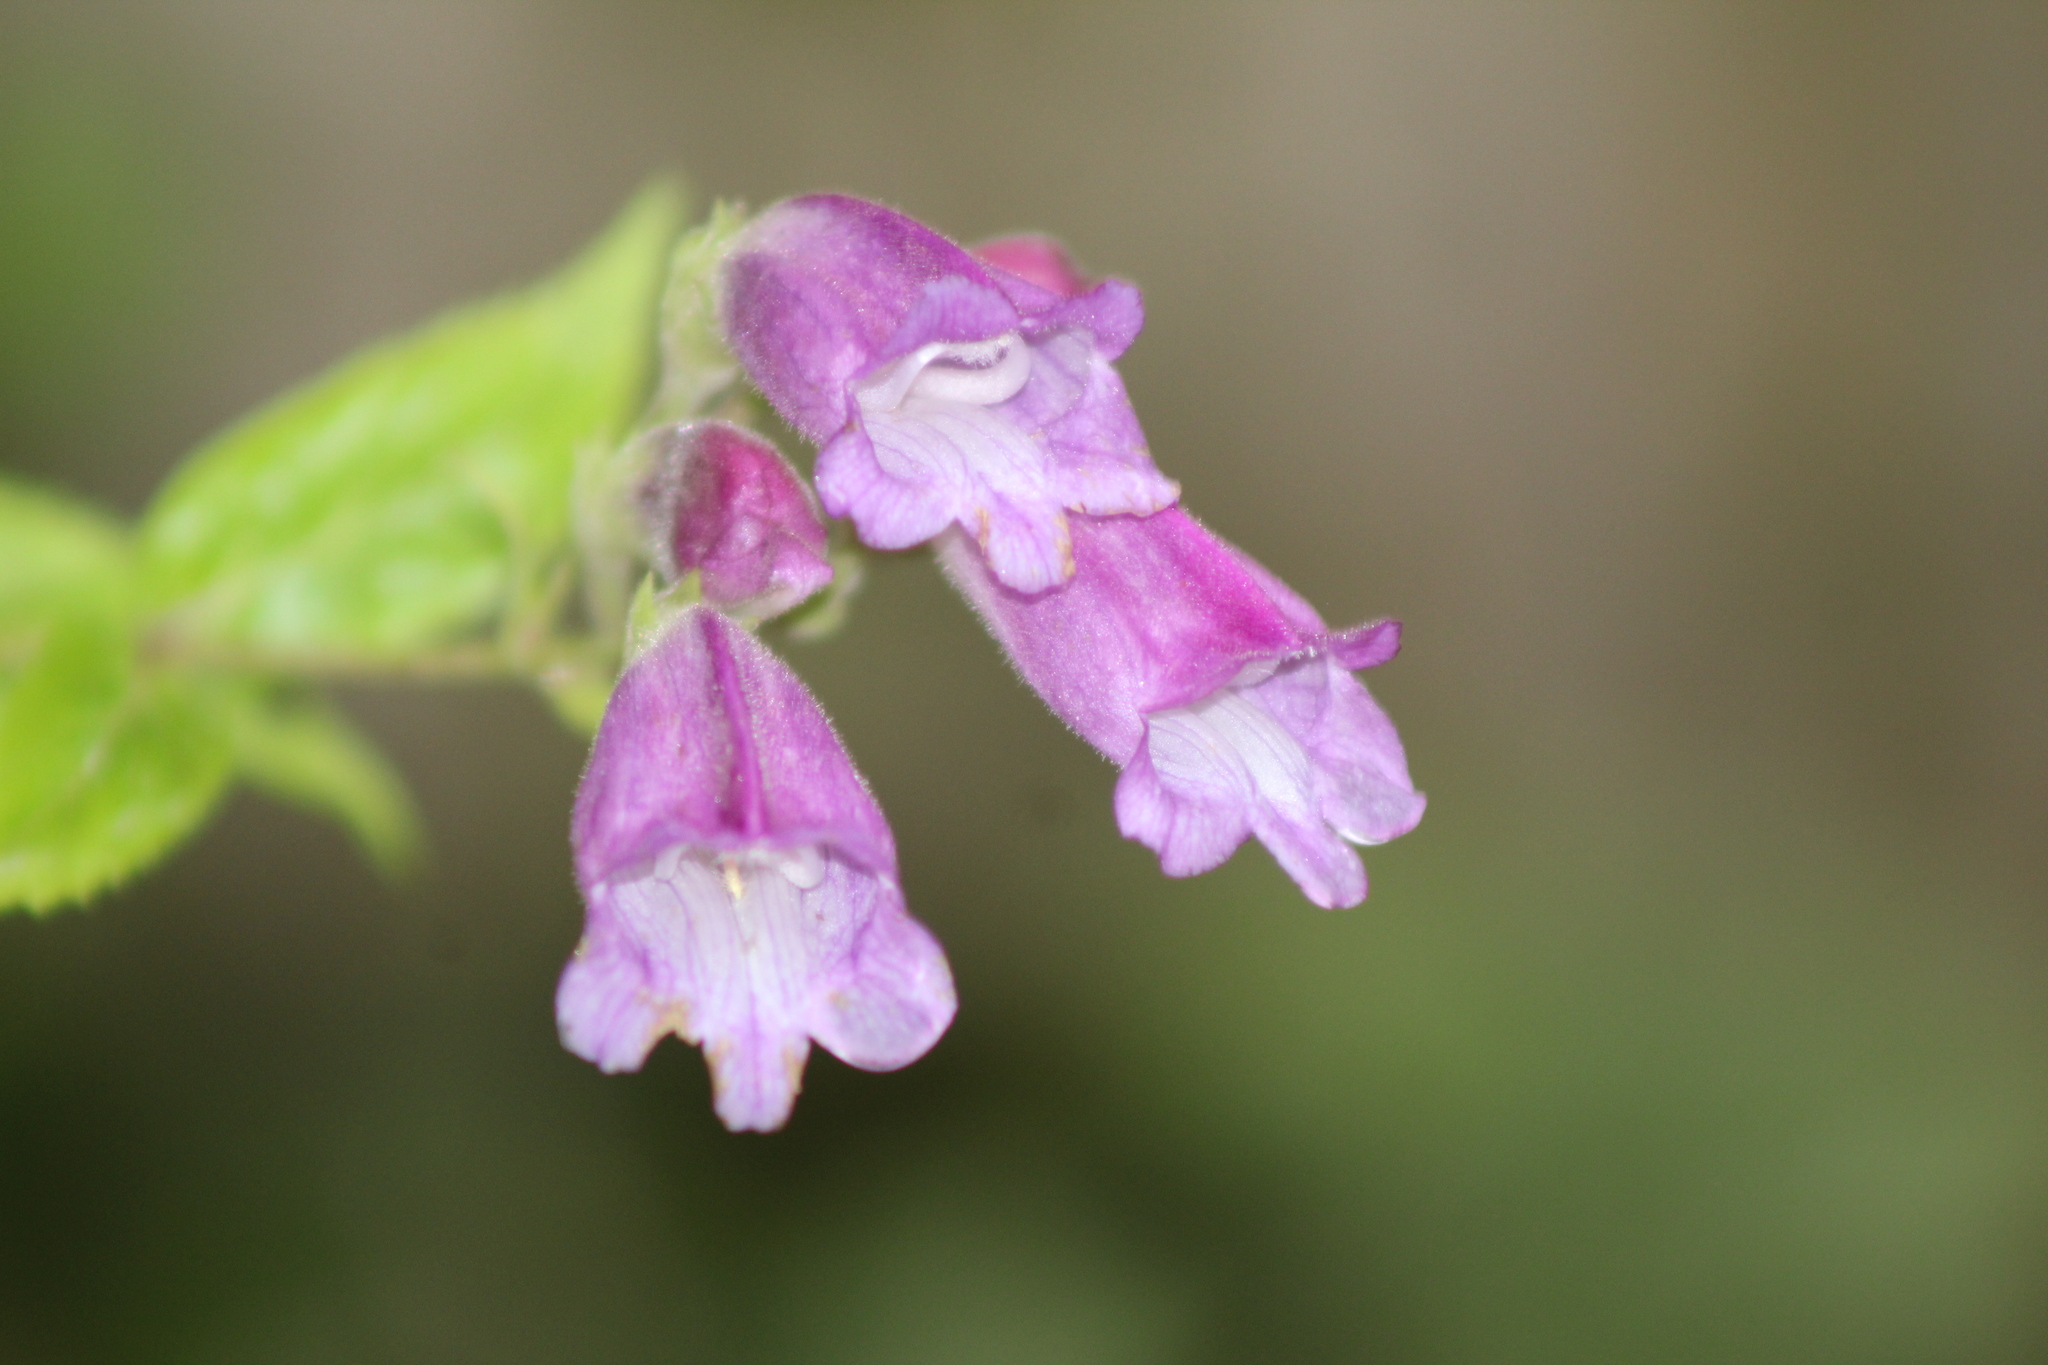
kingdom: Plantae
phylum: Tracheophyta
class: Magnoliopsida
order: Lamiales
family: Plantaginaceae
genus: Nothochelone
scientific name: Nothochelone nemorosa
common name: Woodland beardtongue
